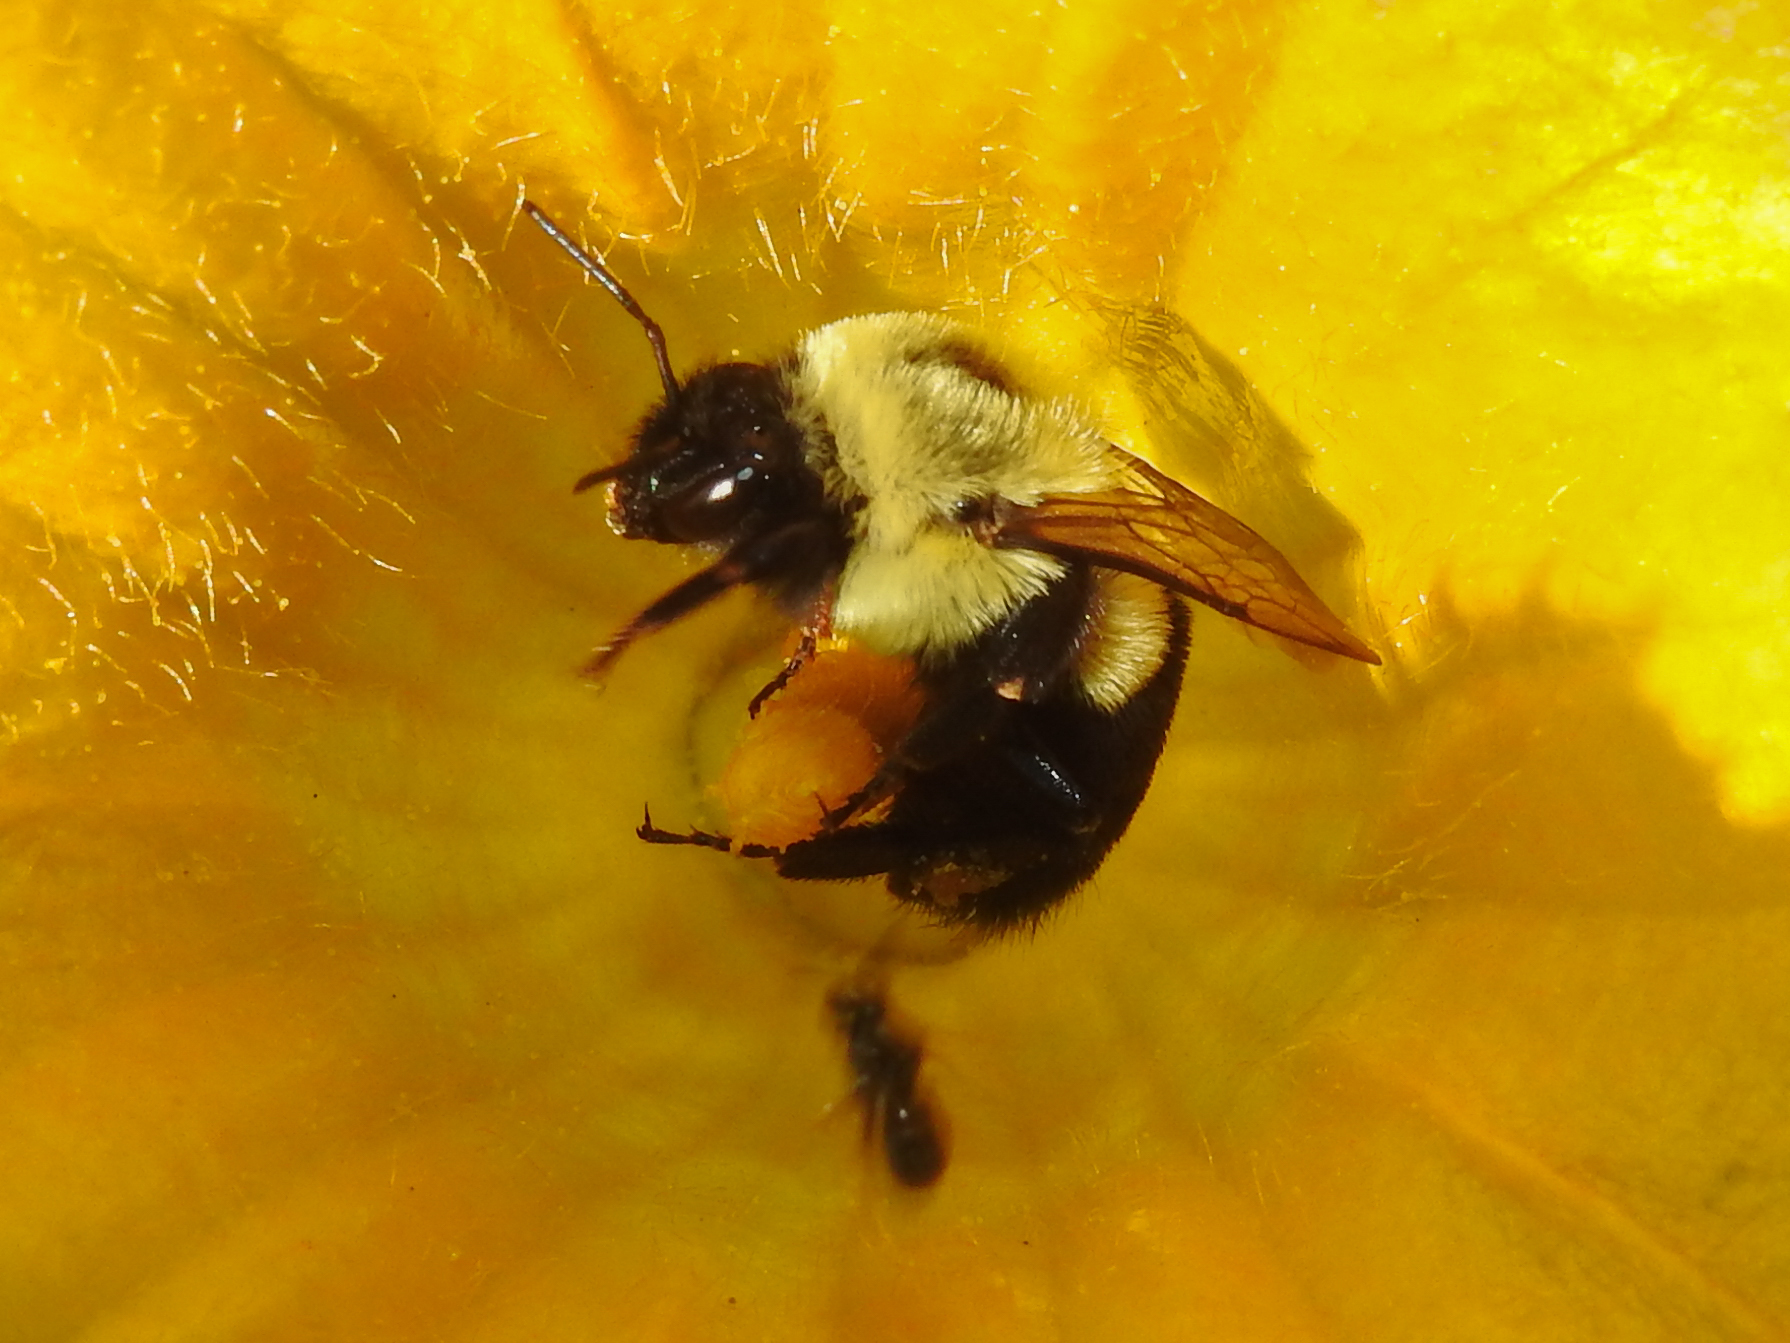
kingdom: Animalia
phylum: Arthropoda
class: Insecta
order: Hymenoptera
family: Apidae
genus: Bombus
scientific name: Bombus impatiens
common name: Common eastern bumble bee
